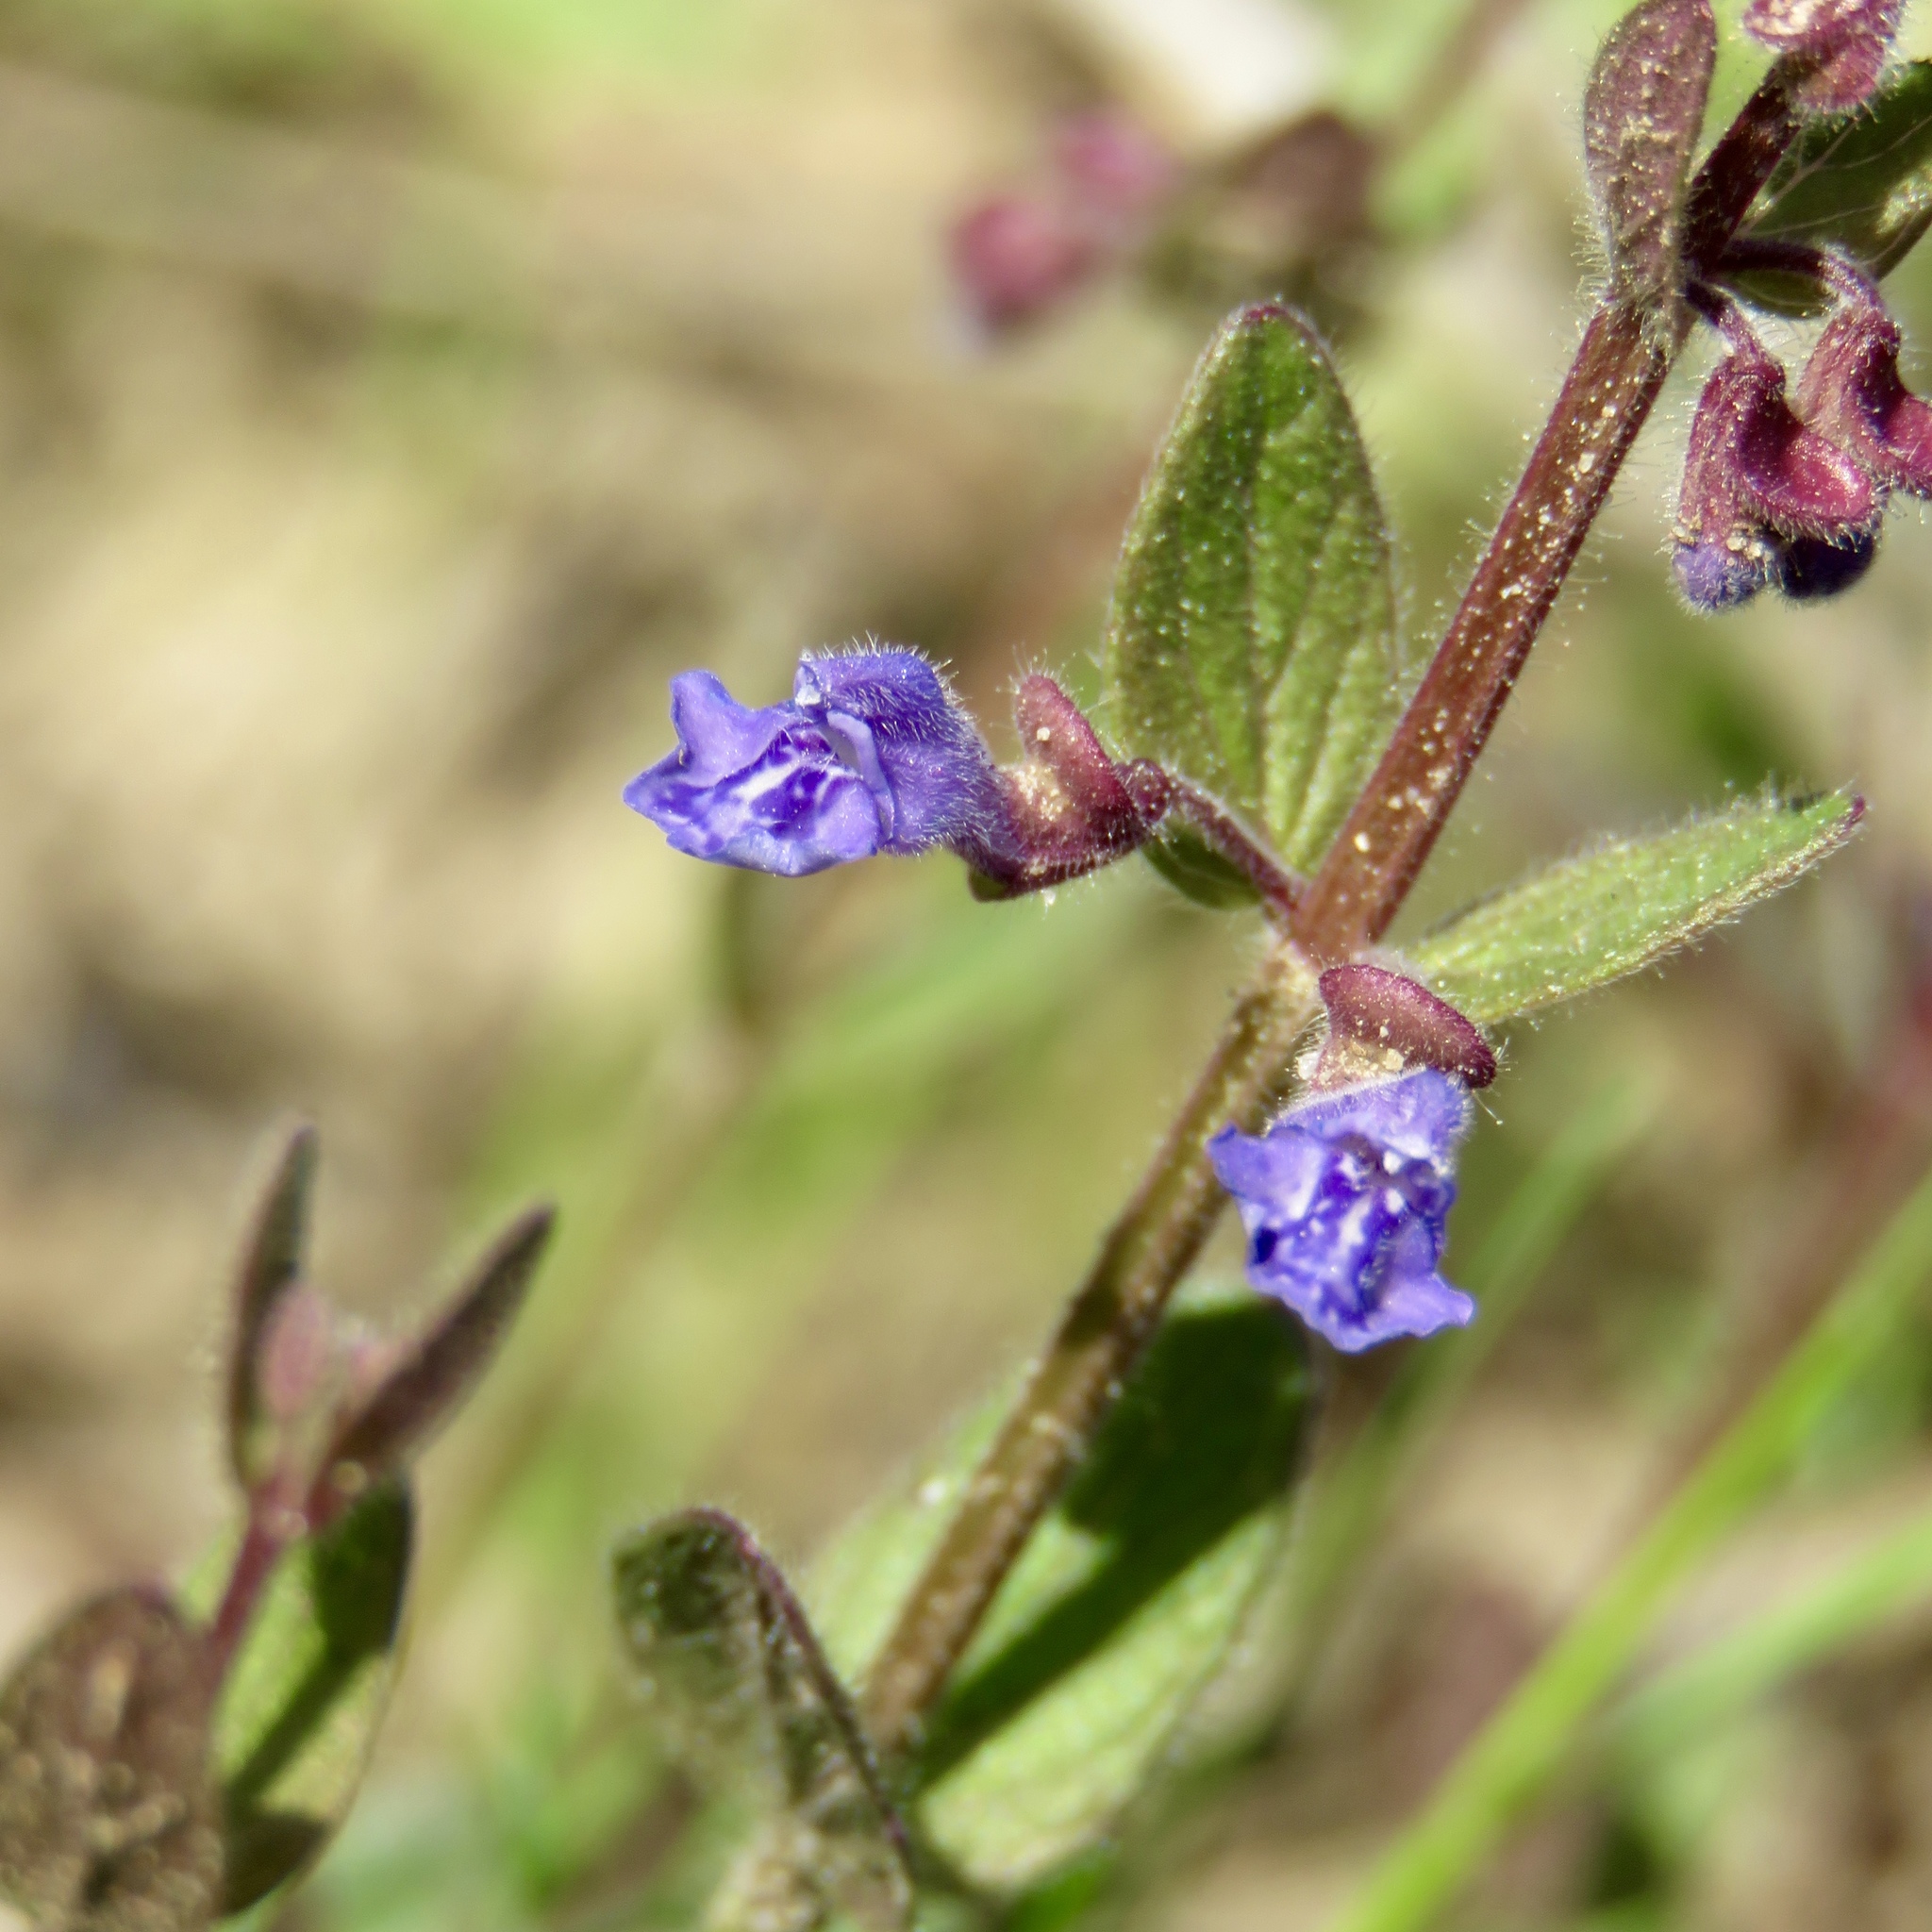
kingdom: Plantae
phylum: Tracheophyta
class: Magnoliopsida
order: Lamiales
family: Lamiaceae
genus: Scutellaria
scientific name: Scutellaria parvula
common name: Little scullcap
